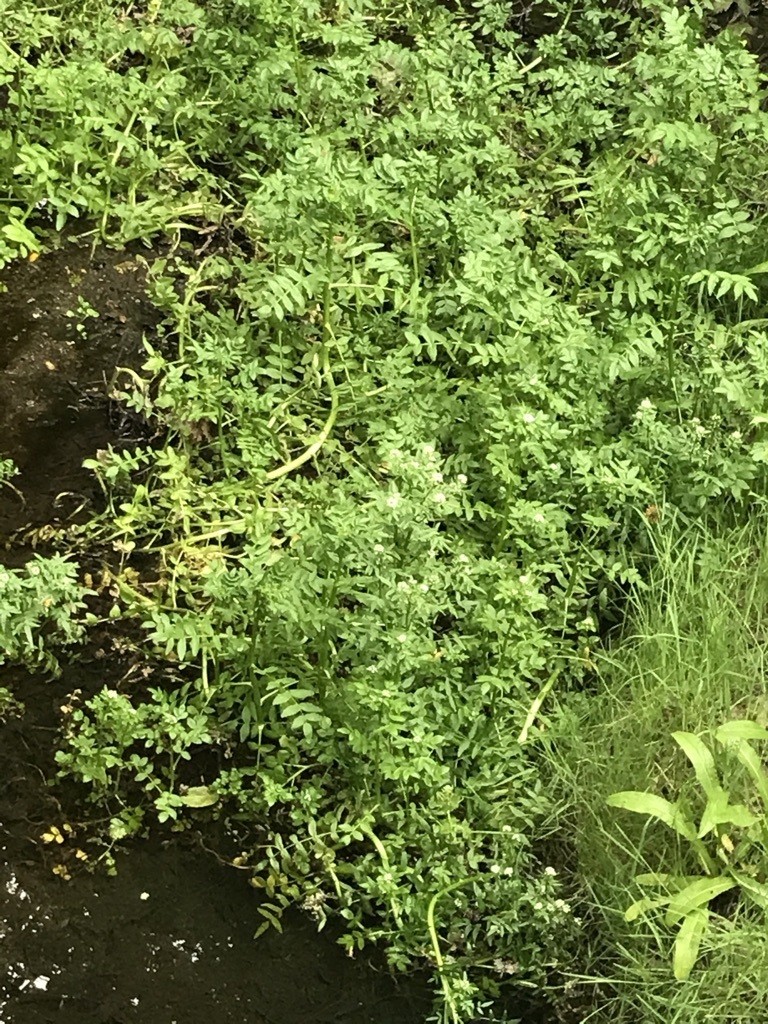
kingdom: Plantae
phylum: Tracheophyta
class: Magnoliopsida
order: Brassicales
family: Brassicaceae
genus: Nasturtium
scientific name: Nasturtium officinale
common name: Watercress
